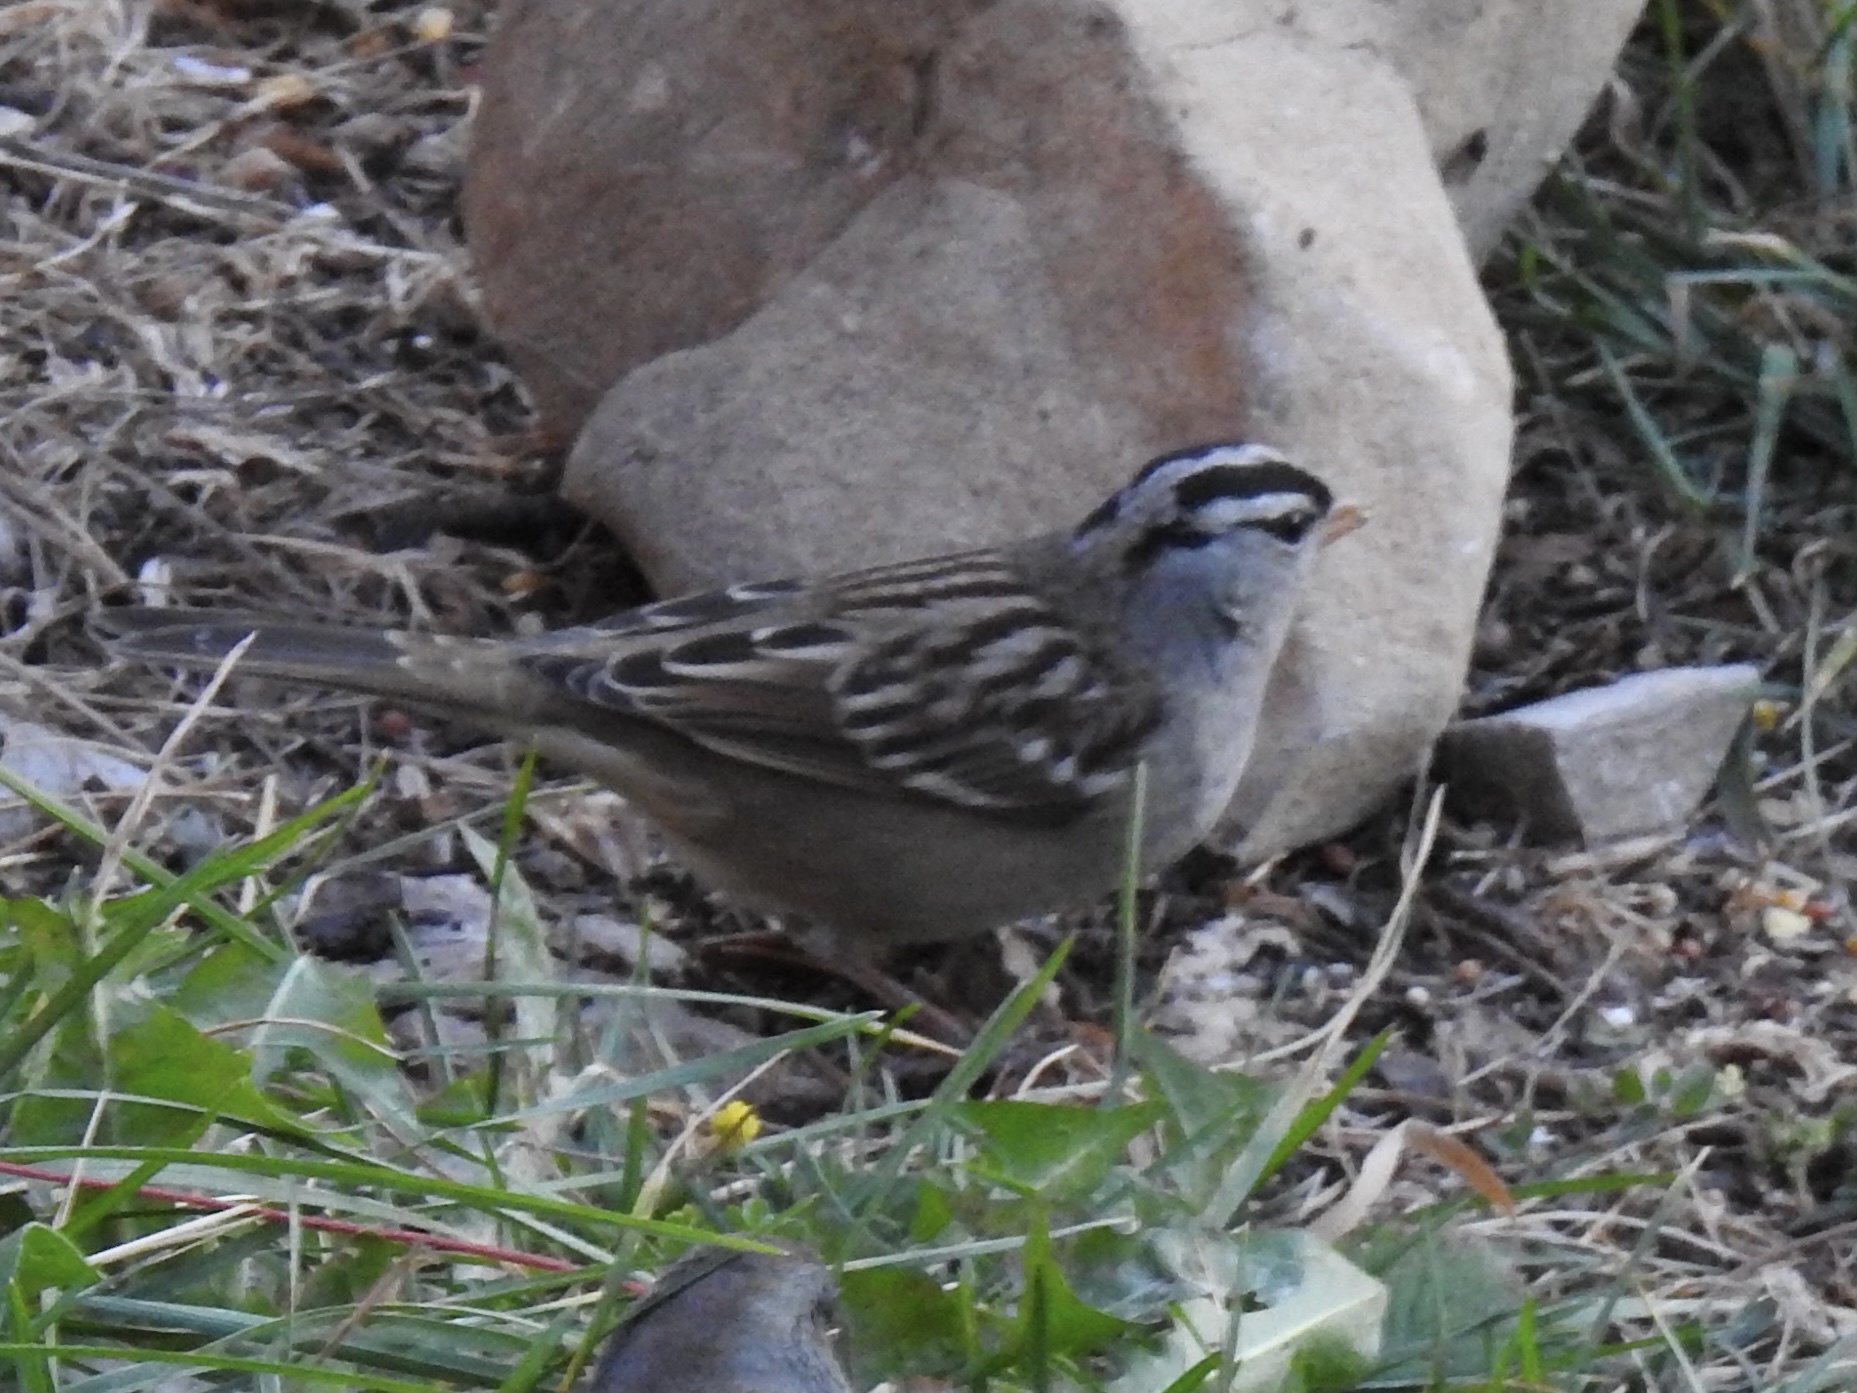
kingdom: Animalia
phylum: Chordata
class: Aves
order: Passeriformes
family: Passerellidae
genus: Zonotrichia
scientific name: Zonotrichia leucophrys
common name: White-crowned sparrow
